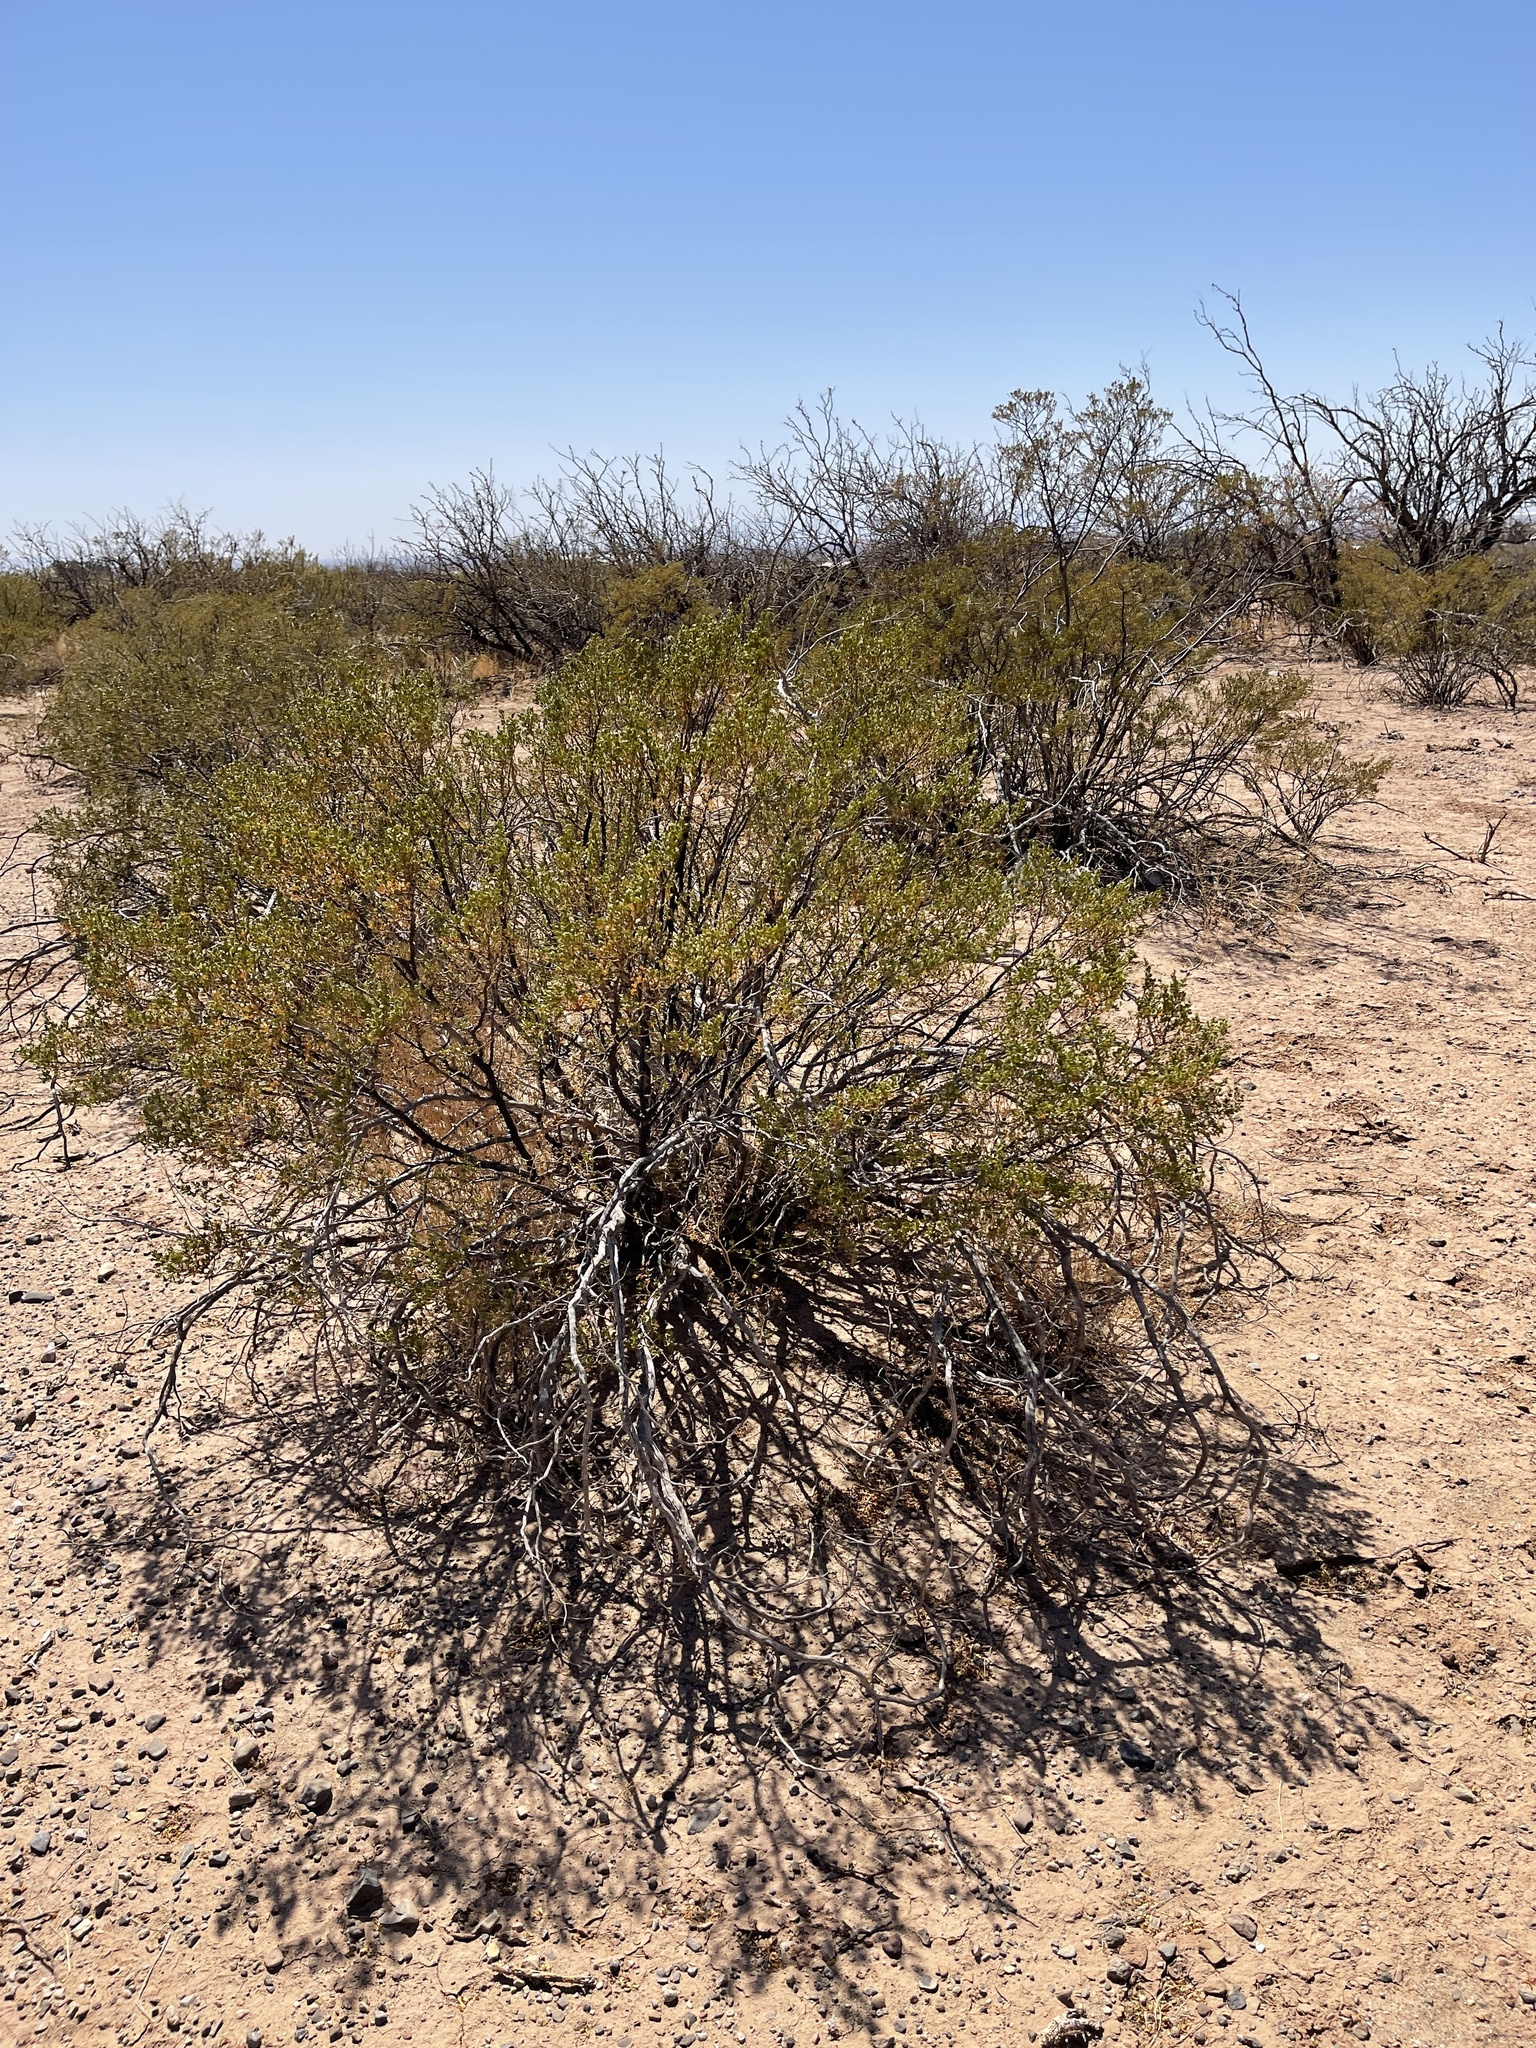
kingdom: Plantae
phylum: Tracheophyta
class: Magnoliopsida
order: Zygophyllales
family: Zygophyllaceae
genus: Larrea
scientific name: Larrea tridentata
